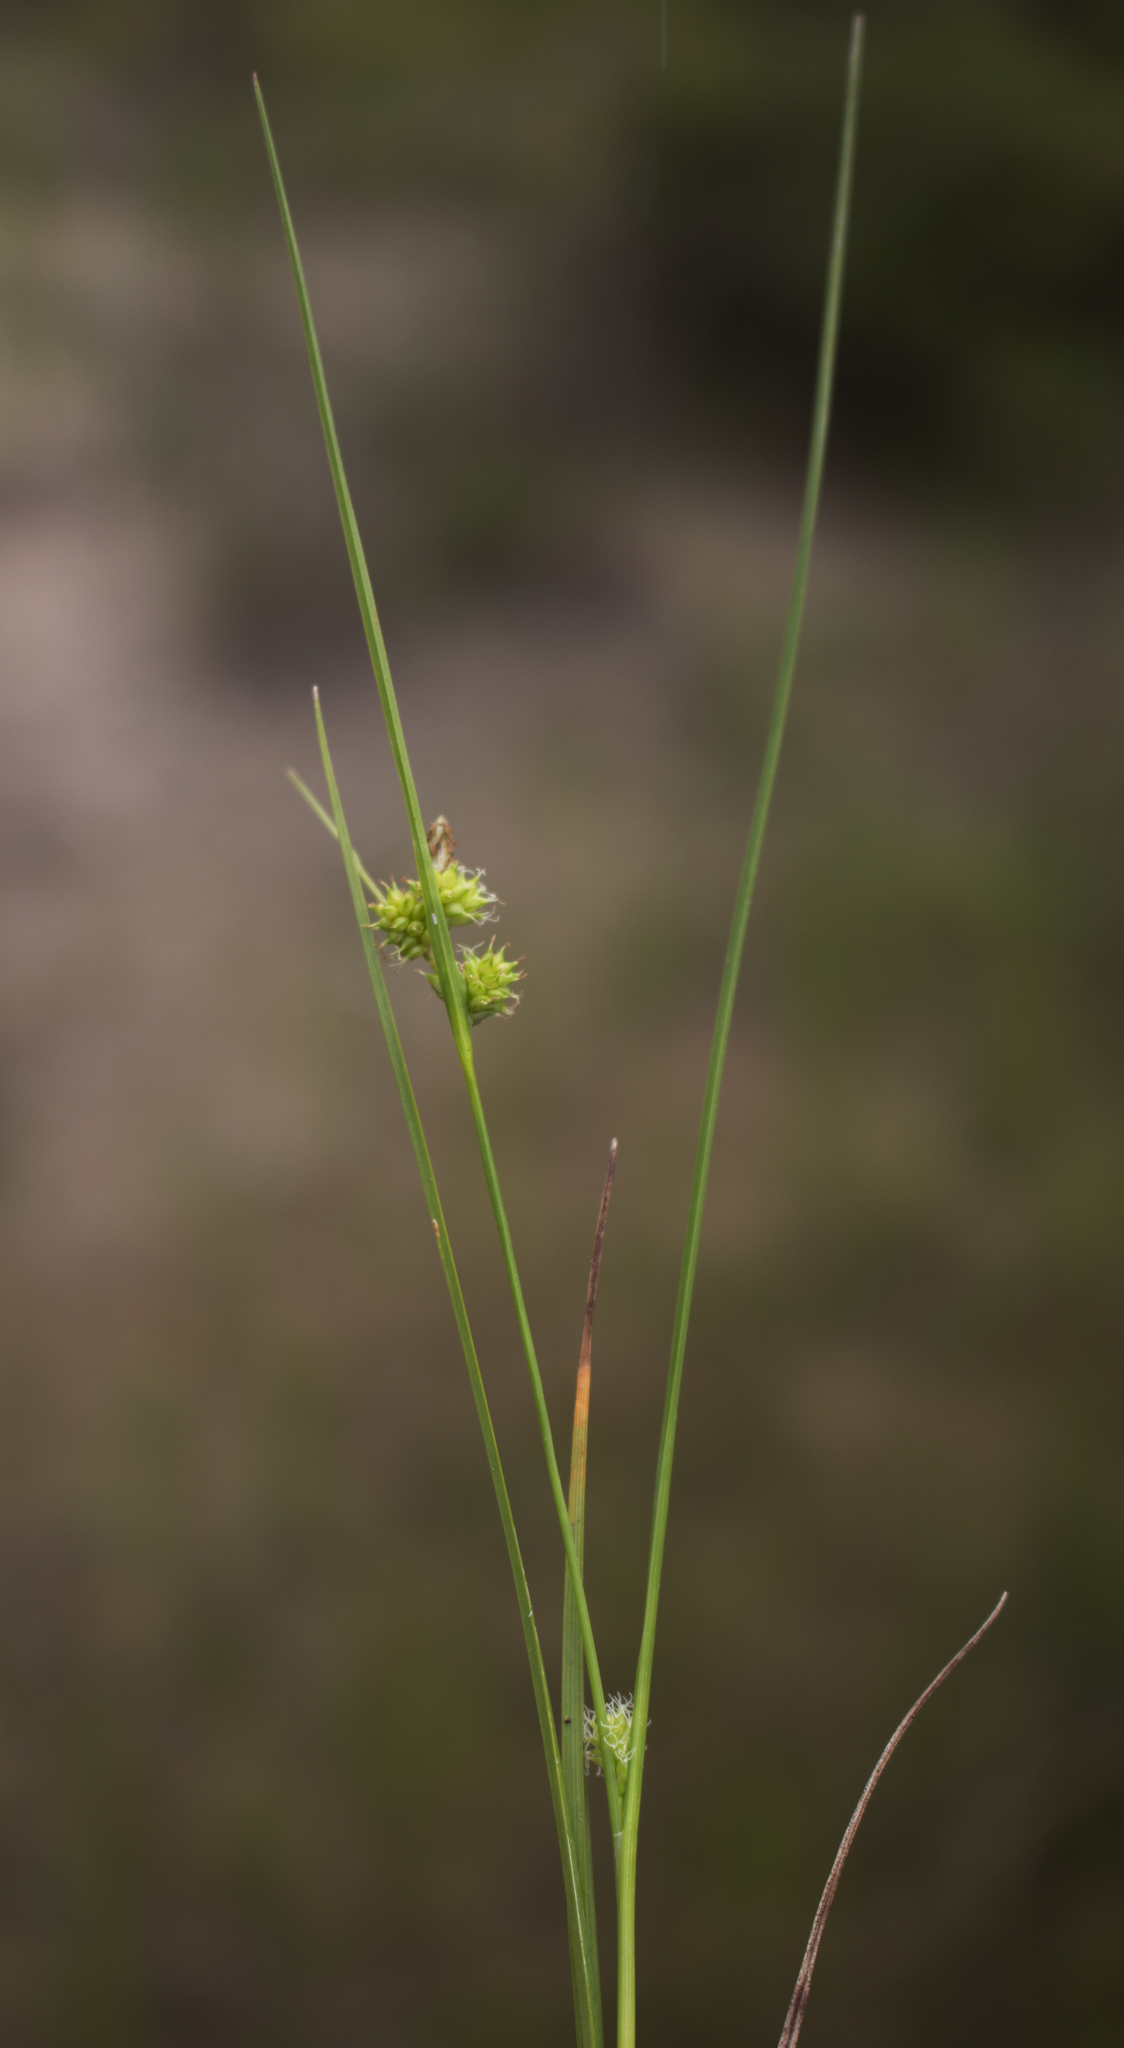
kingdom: Plantae
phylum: Tracheophyta
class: Liliopsida
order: Poales
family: Cyperaceae
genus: Carex
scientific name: Carex
